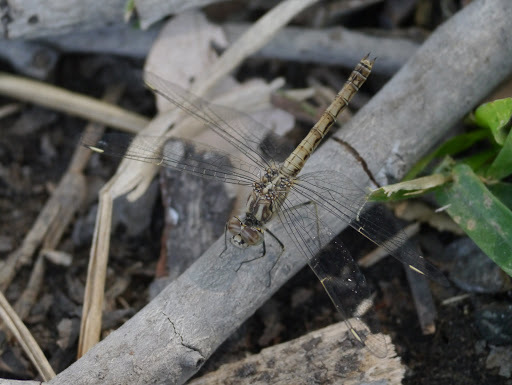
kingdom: Animalia
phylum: Arthropoda
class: Insecta
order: Odonata
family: Libellulidae
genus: Brachythemis
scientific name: Brachythemis leucosticta
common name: Banded groundling
